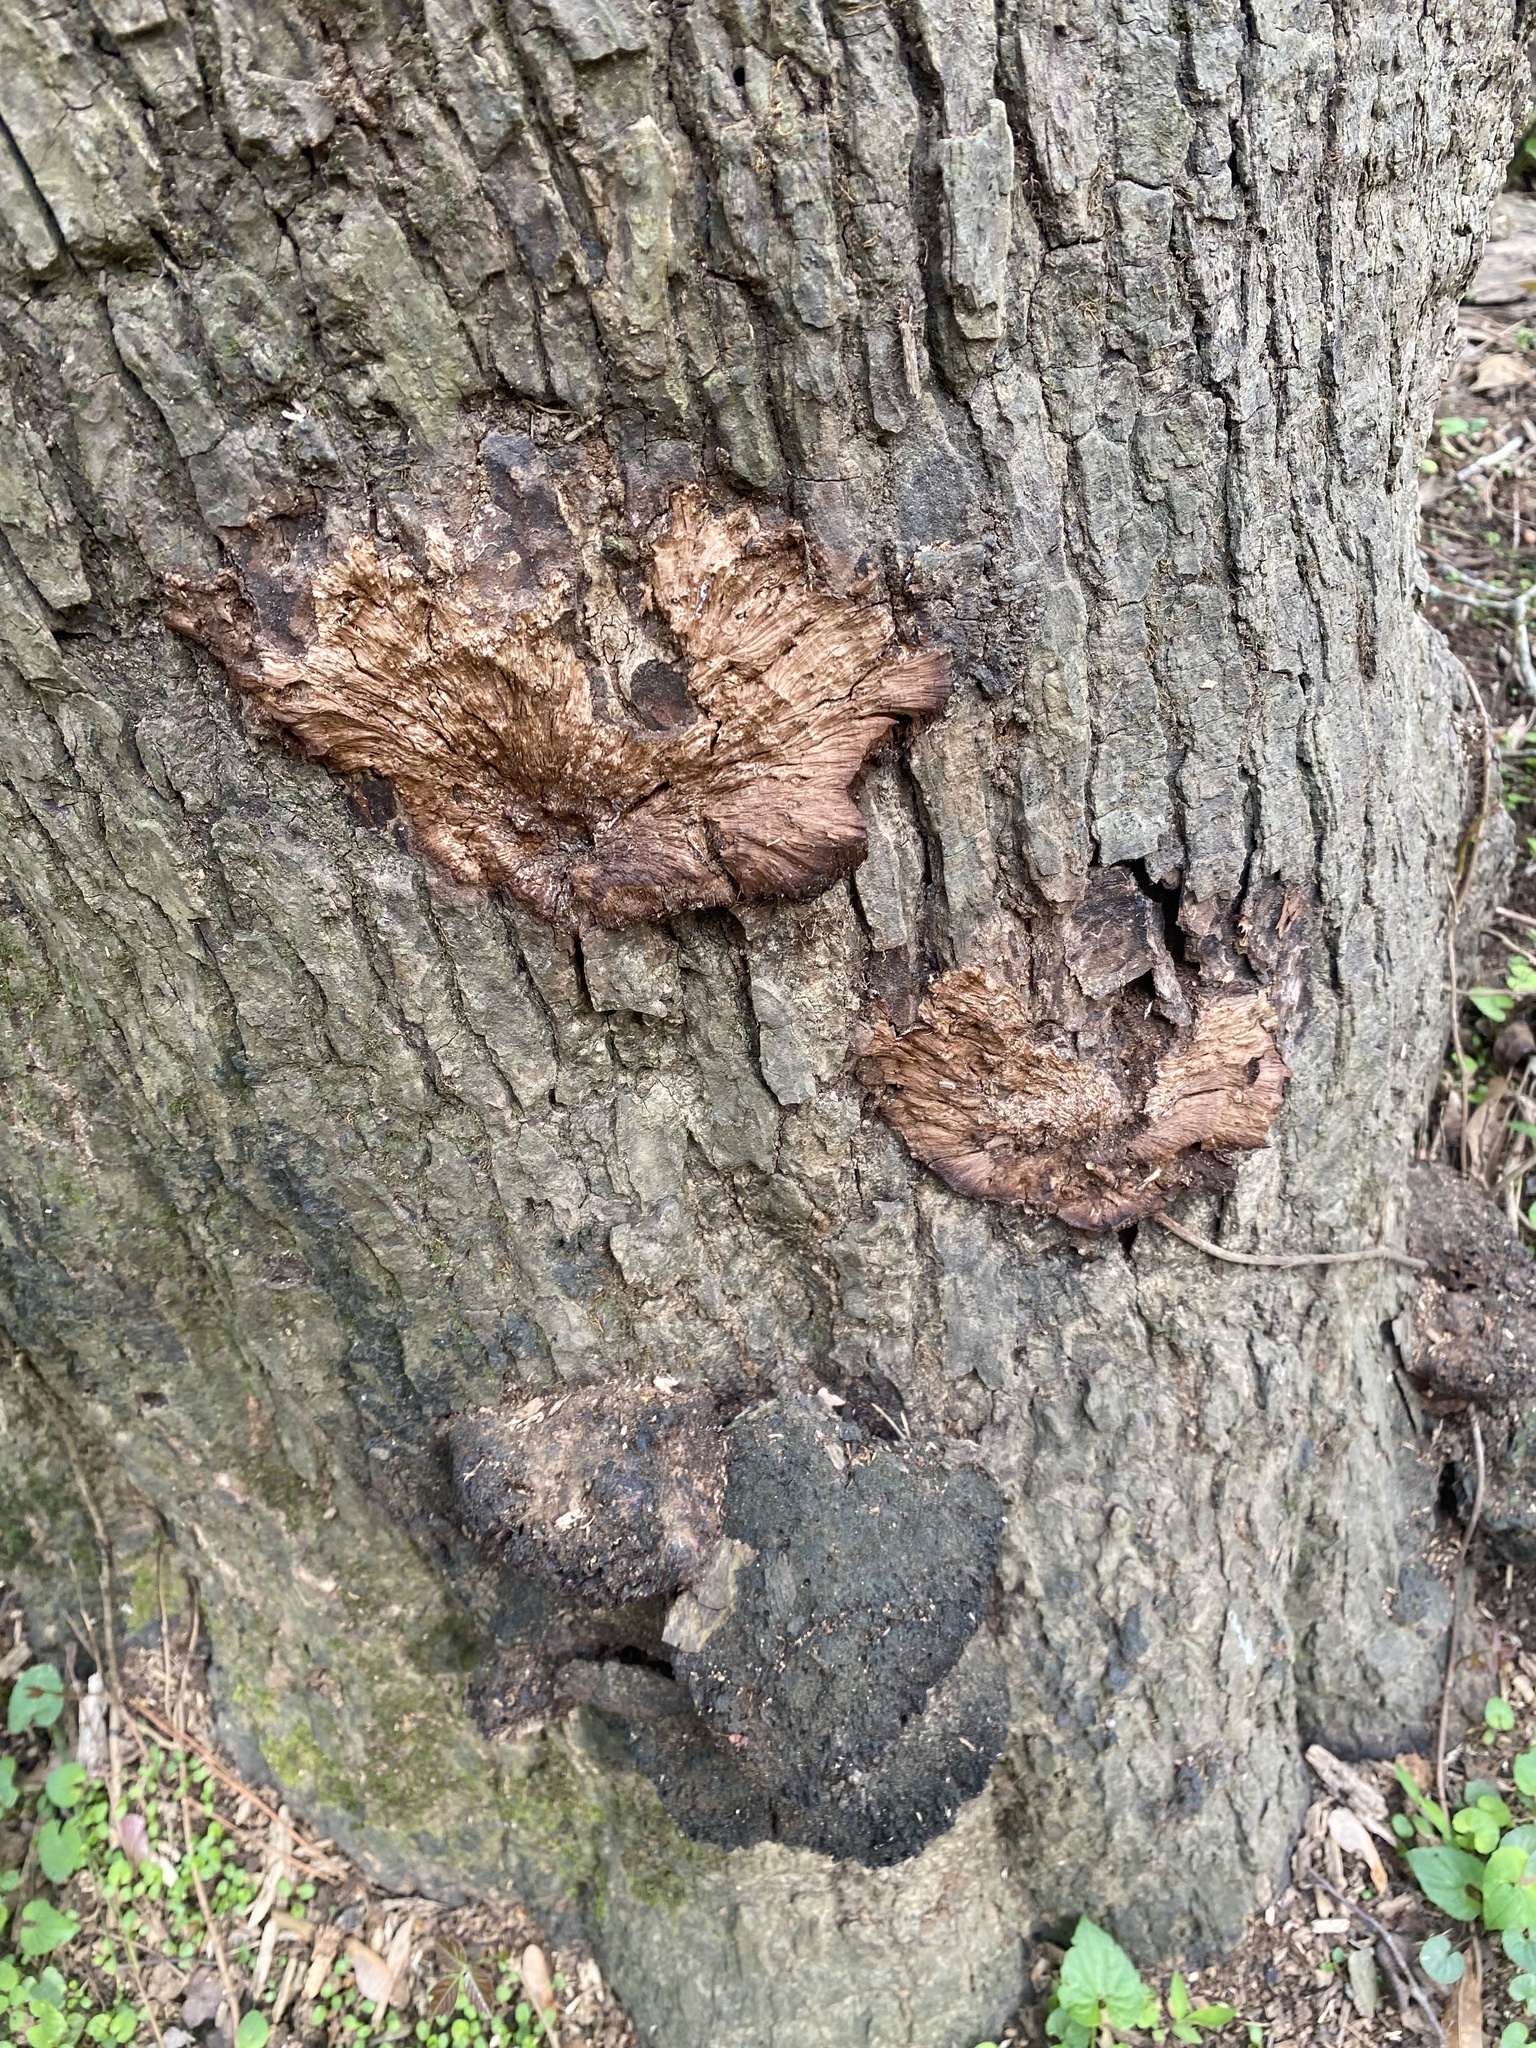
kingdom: Fungi
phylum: Basidiomycota
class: Agaricomycetes
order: Hymenochaetales
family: Hymenochaetaceae
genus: Pseudoinonotus
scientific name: Pseudoinonotus dryadeus
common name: Oak bracket
